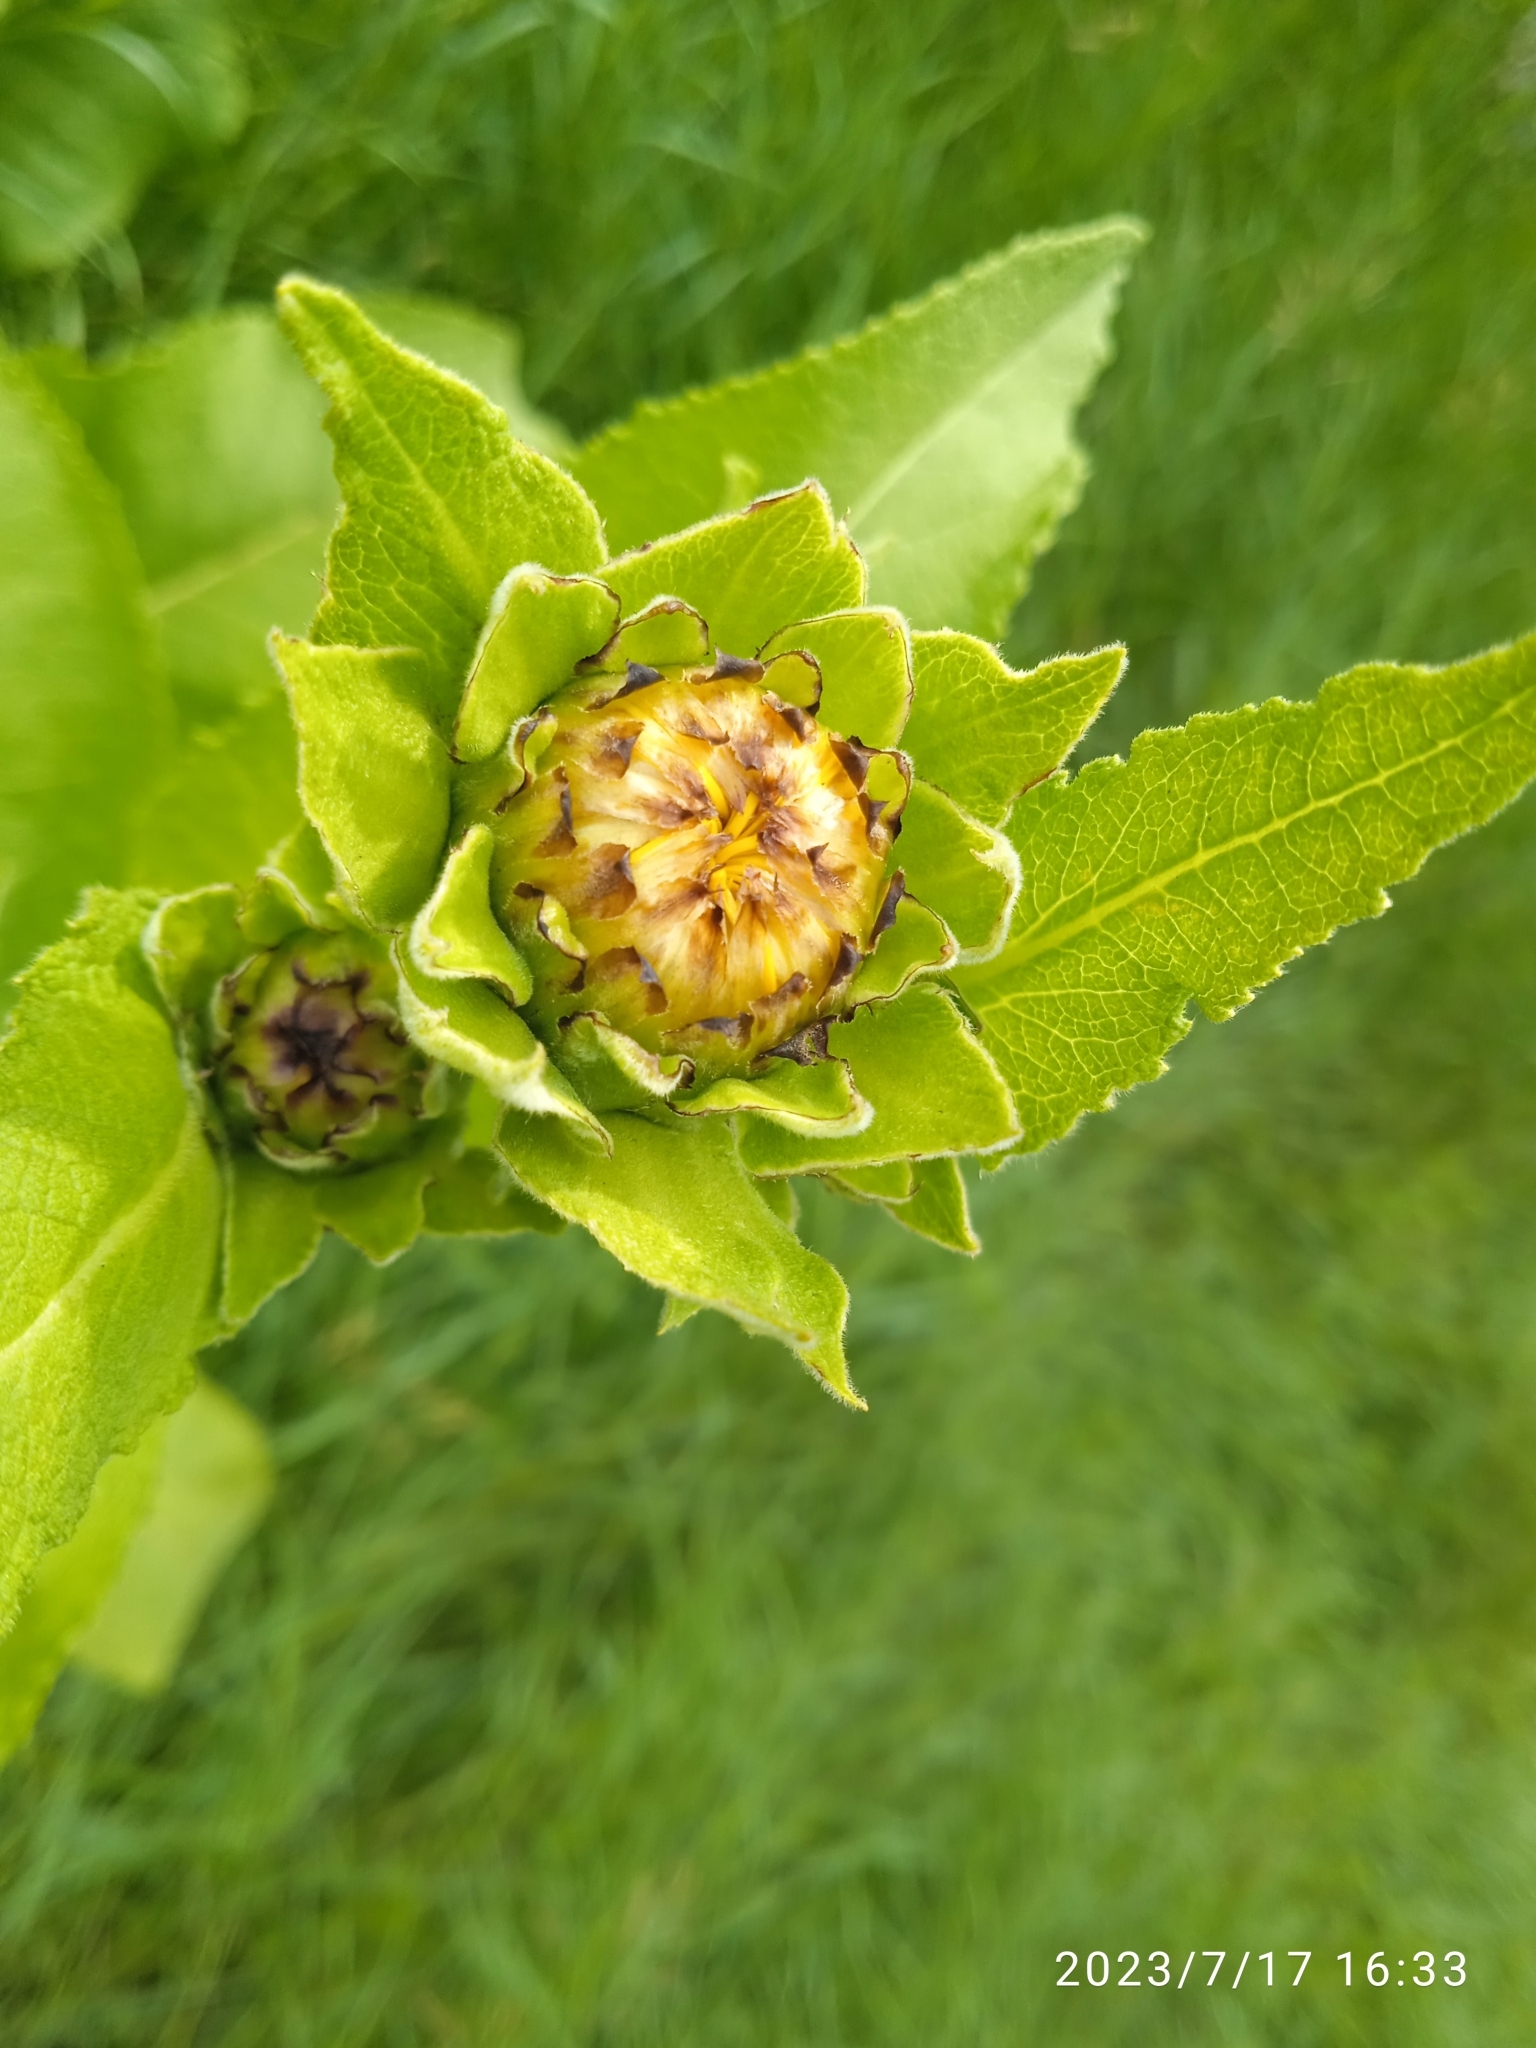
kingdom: Plantae
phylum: Tracheophyta
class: Magnoliopsida
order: Asterales
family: Asteraceae
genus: Inula
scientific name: Inula helenium
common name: Elecampane
